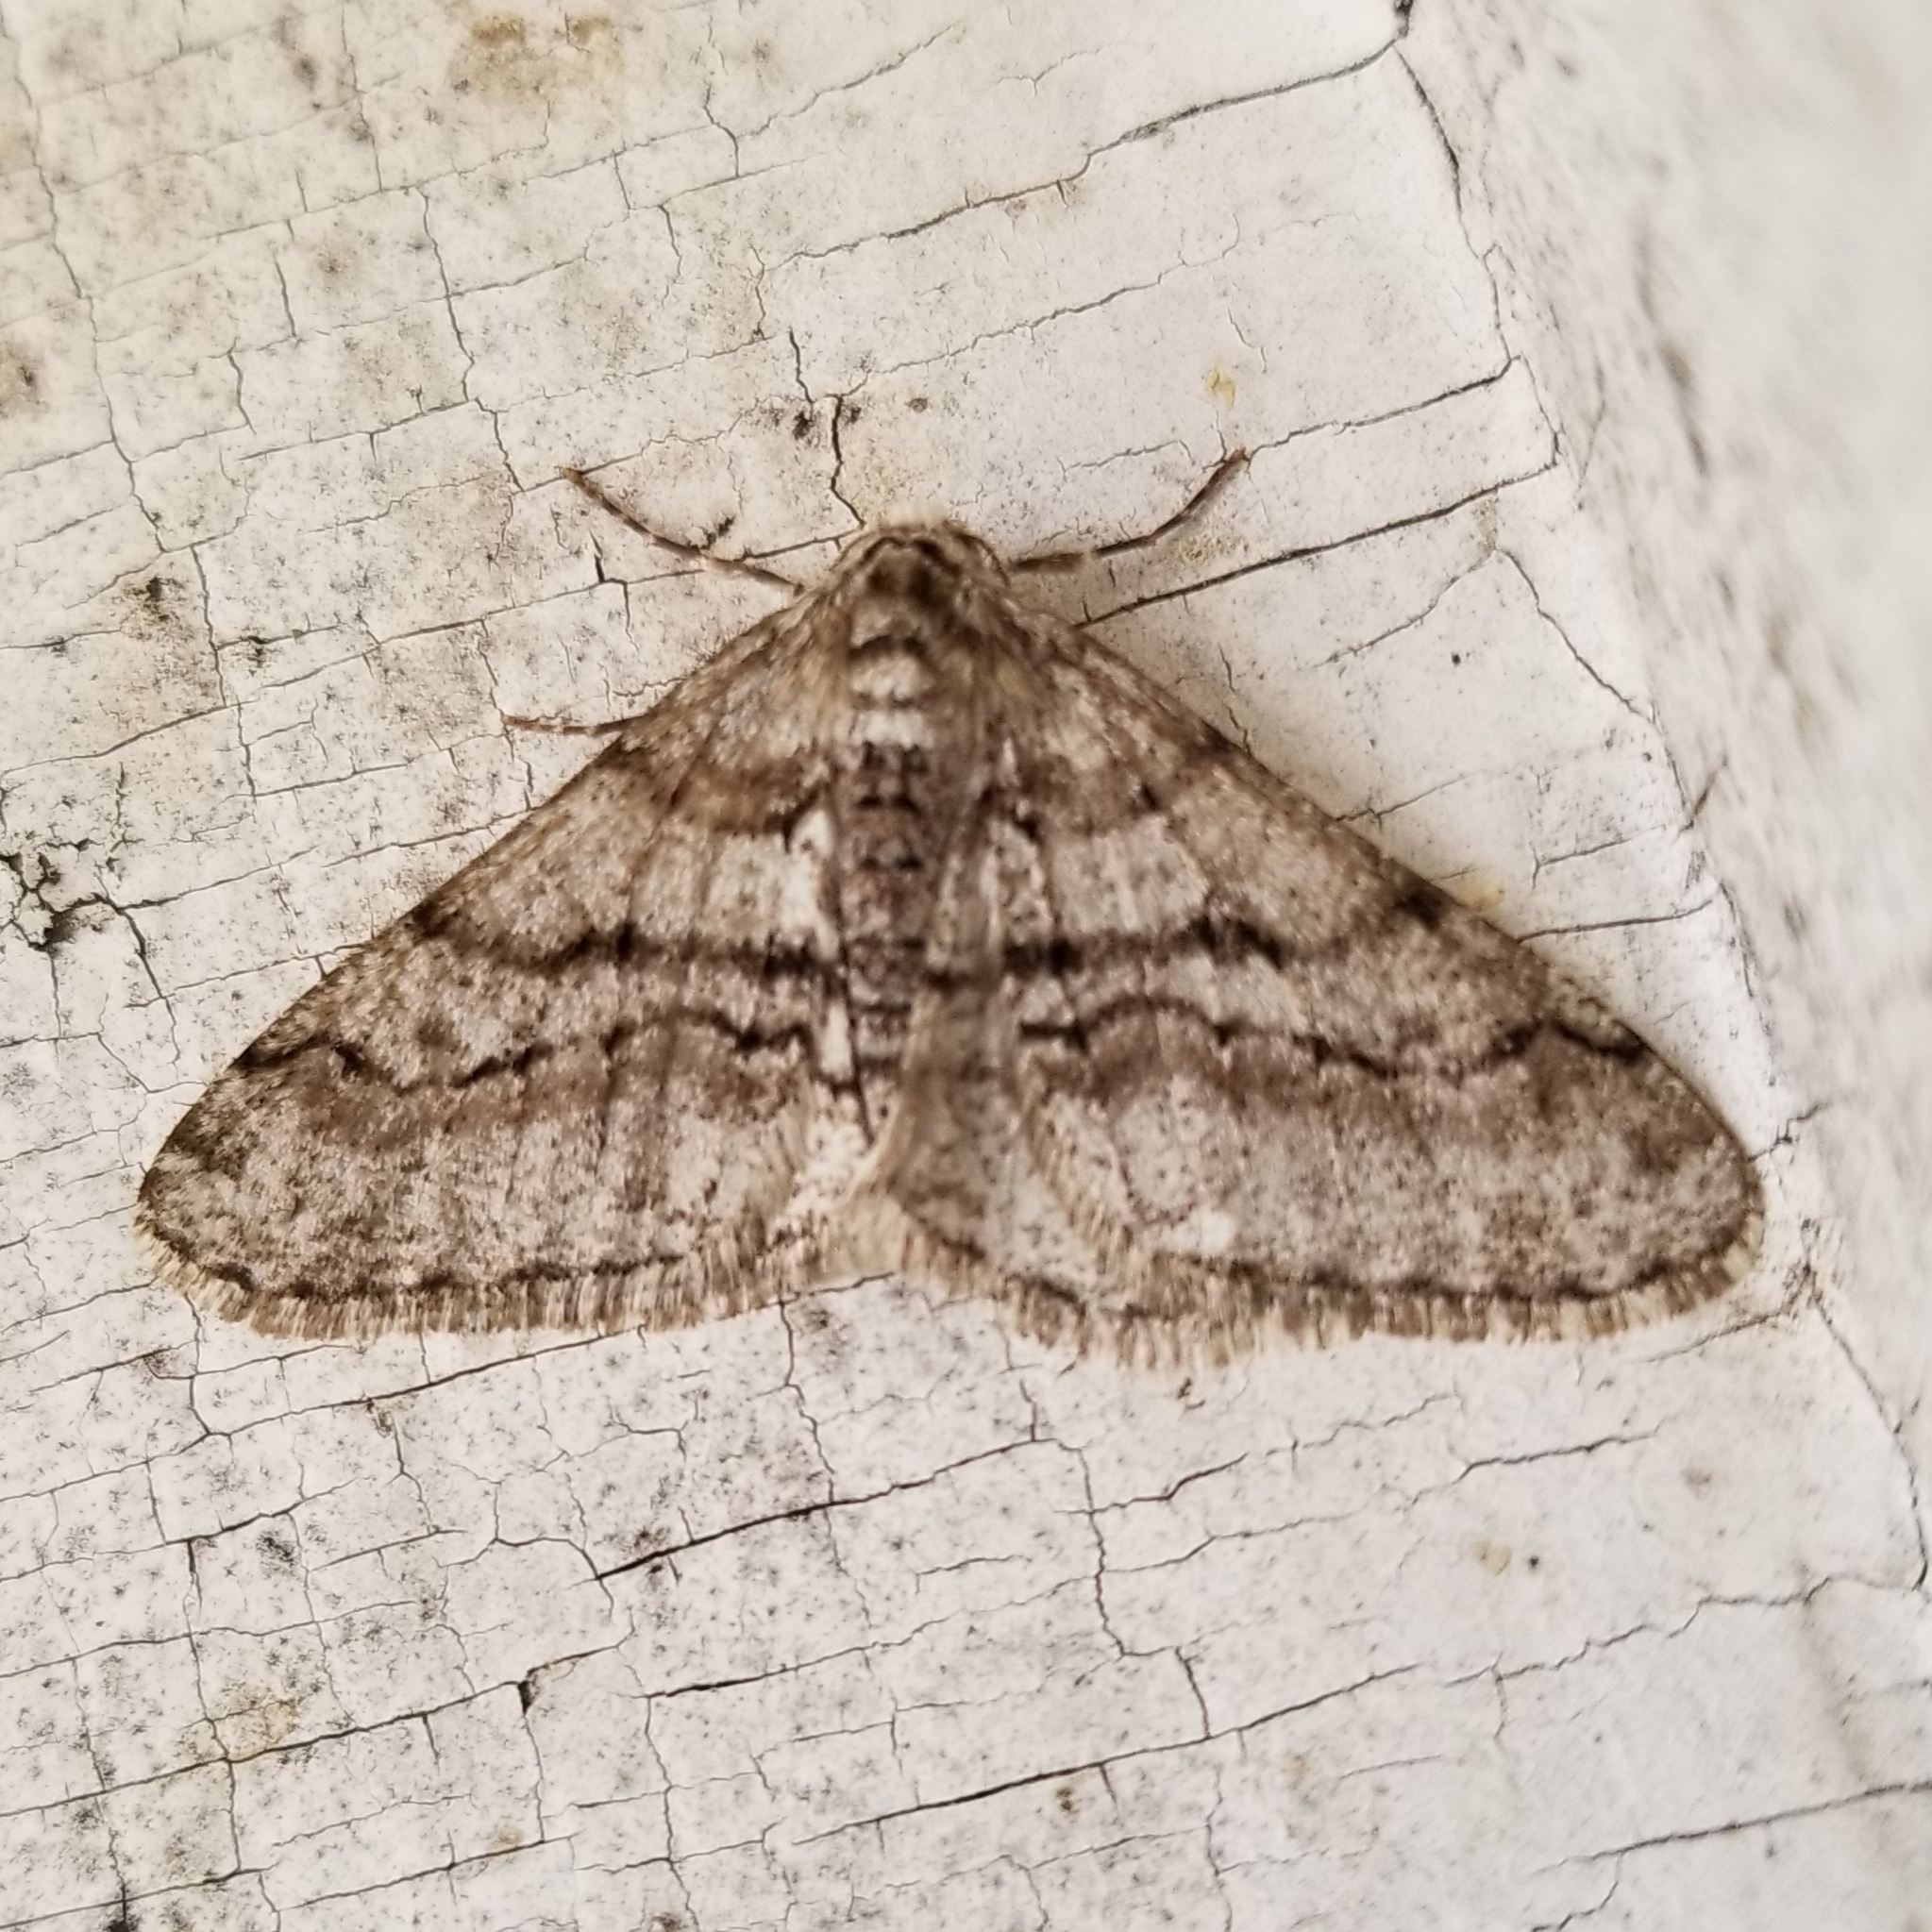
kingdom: Animalia
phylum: Arthropoda
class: Insecta
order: Lepidoptera
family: Geometridae
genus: Phigalia
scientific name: Phigalia titea
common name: Spiny looper
